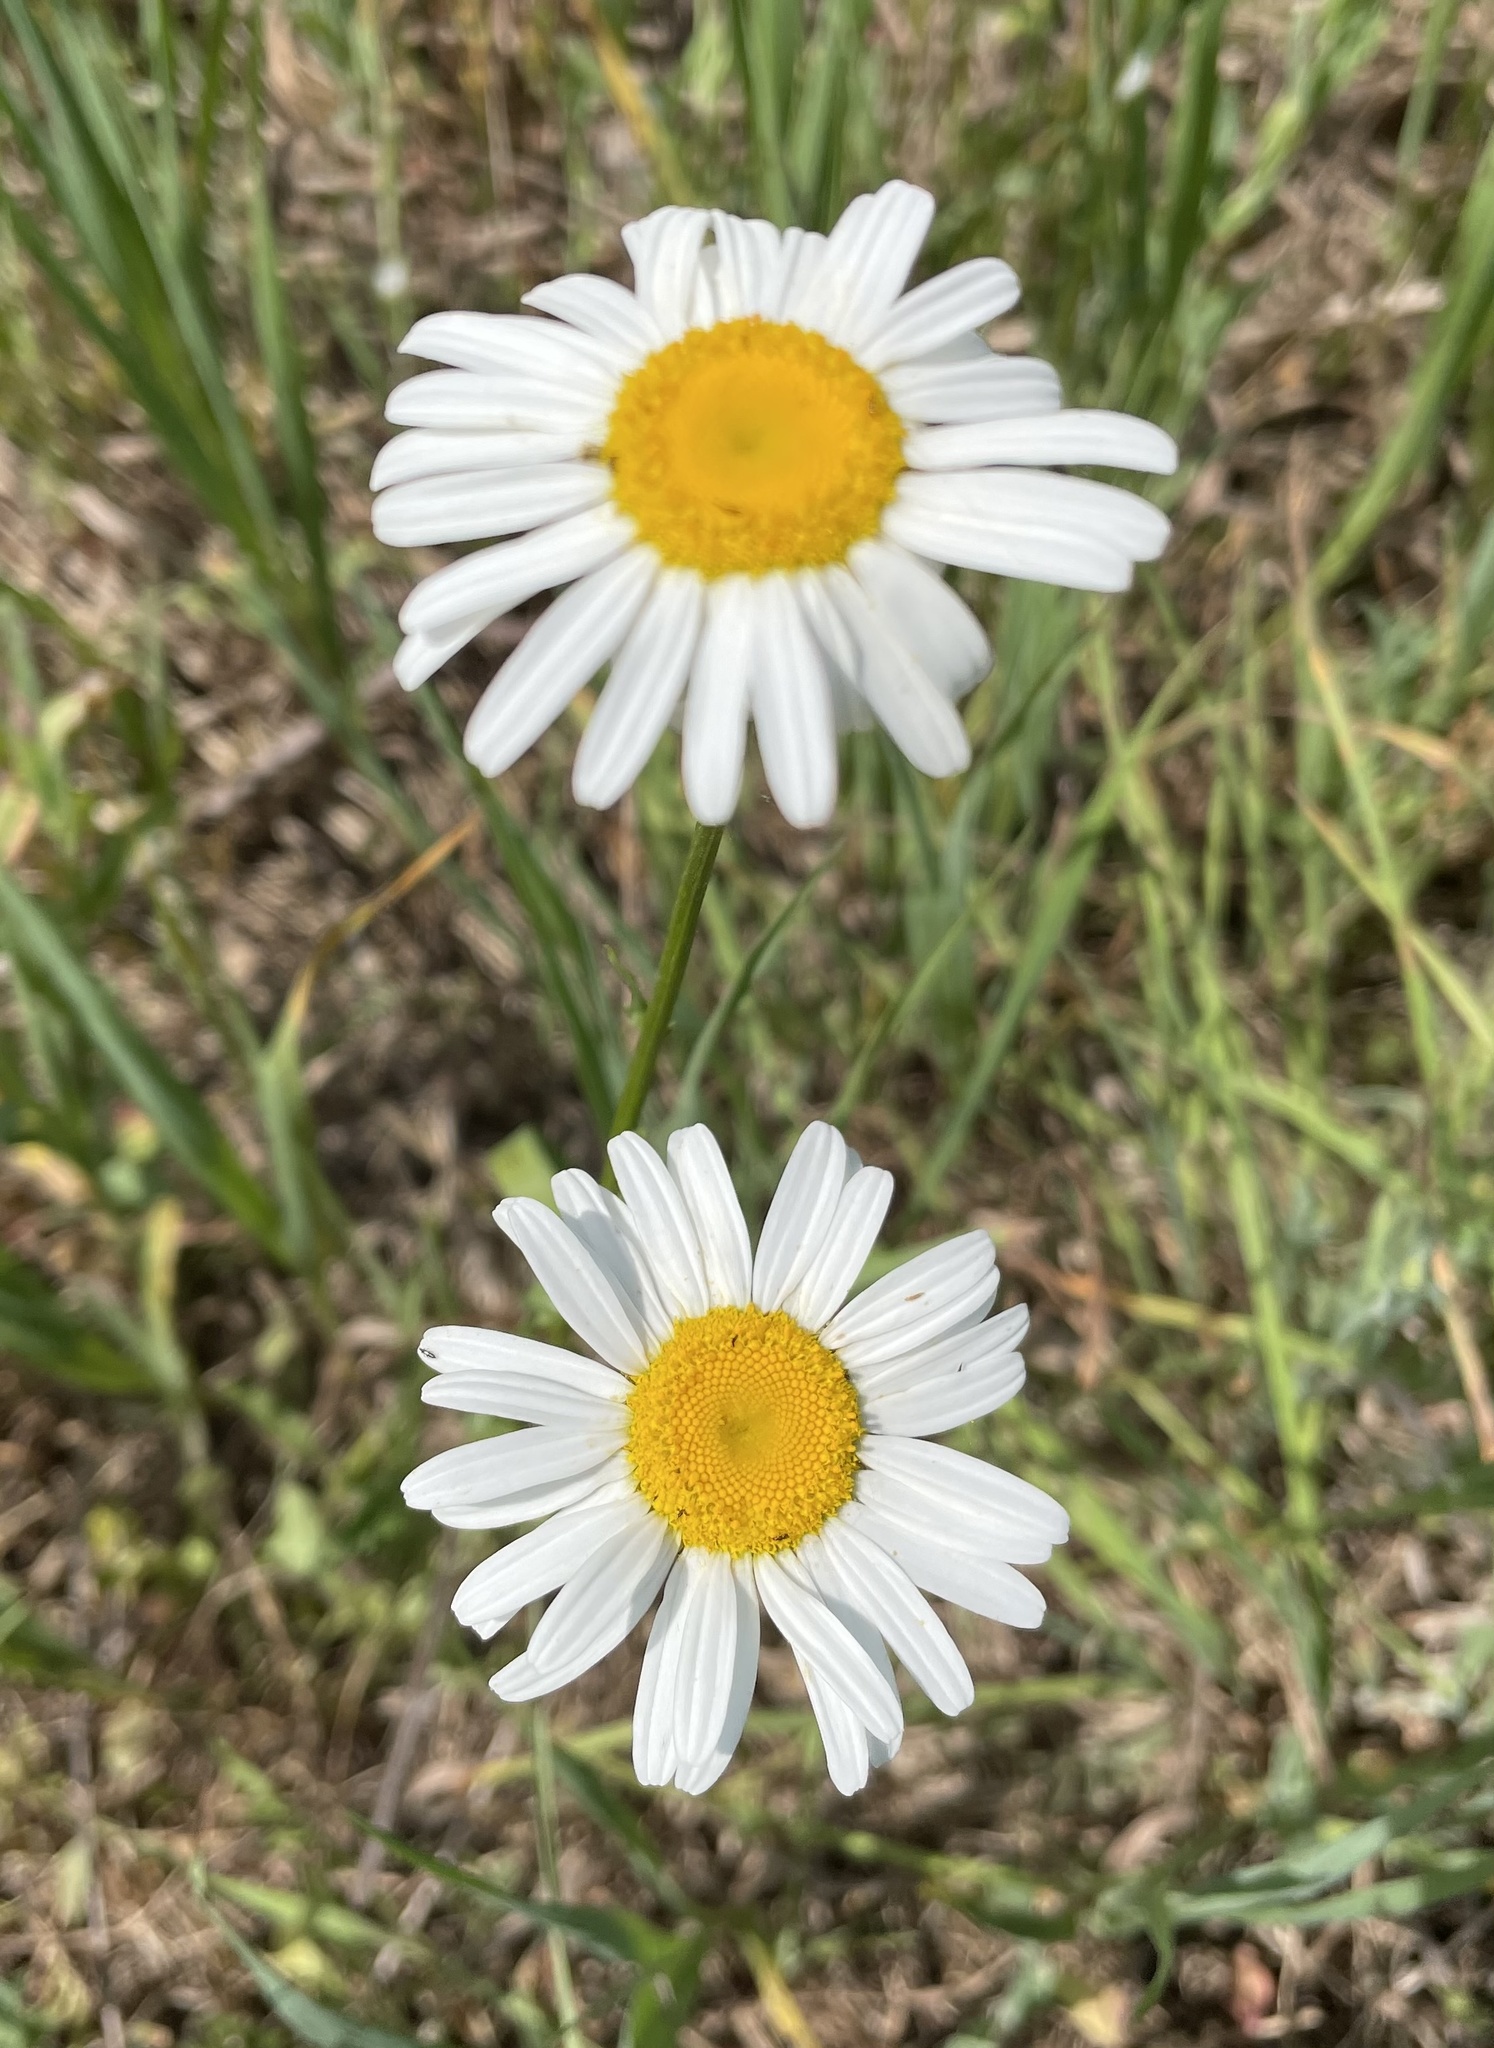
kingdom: Plantae
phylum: Tracheophyta
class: Magnoliopsida
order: Asterales
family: Asteraceae
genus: Leucanthemum
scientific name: Leucanthemum vulgare
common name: Oxeye daisy
